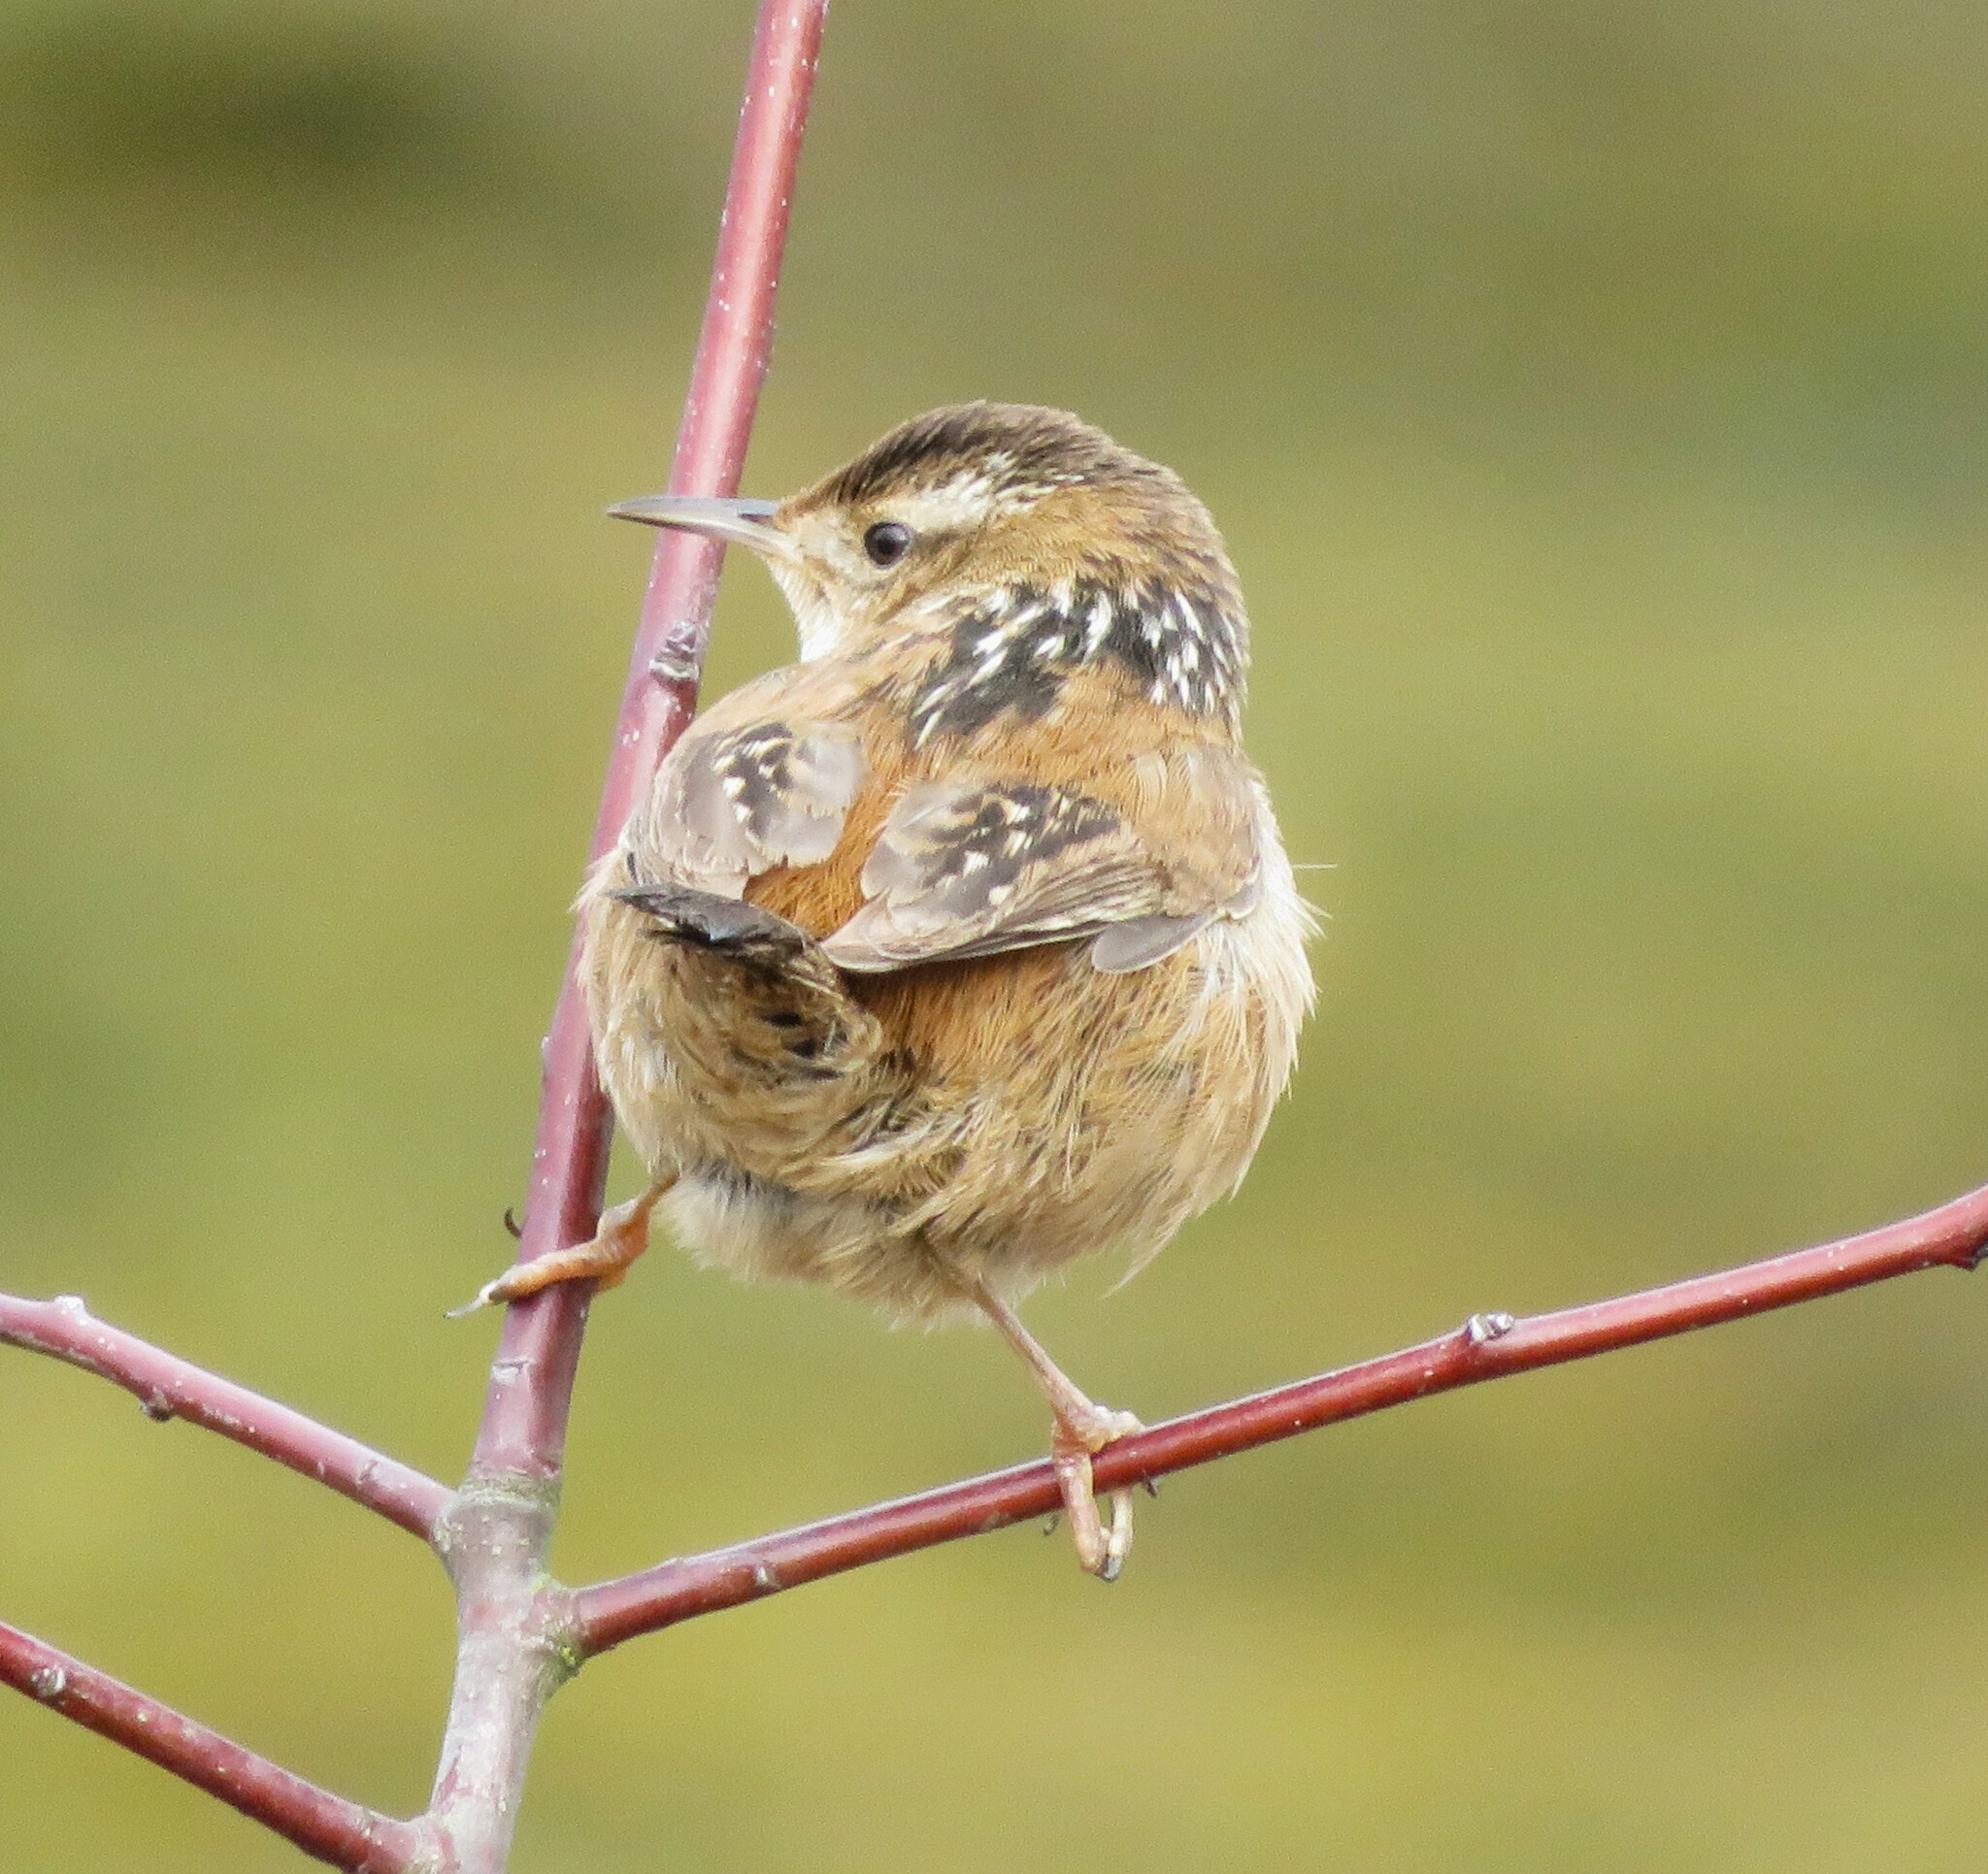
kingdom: Animalia
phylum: Chordata
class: Aves
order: Passeriformes
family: Troglodytidae
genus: Cistothorus
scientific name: Cistothorus palustris
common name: Marsh wren
